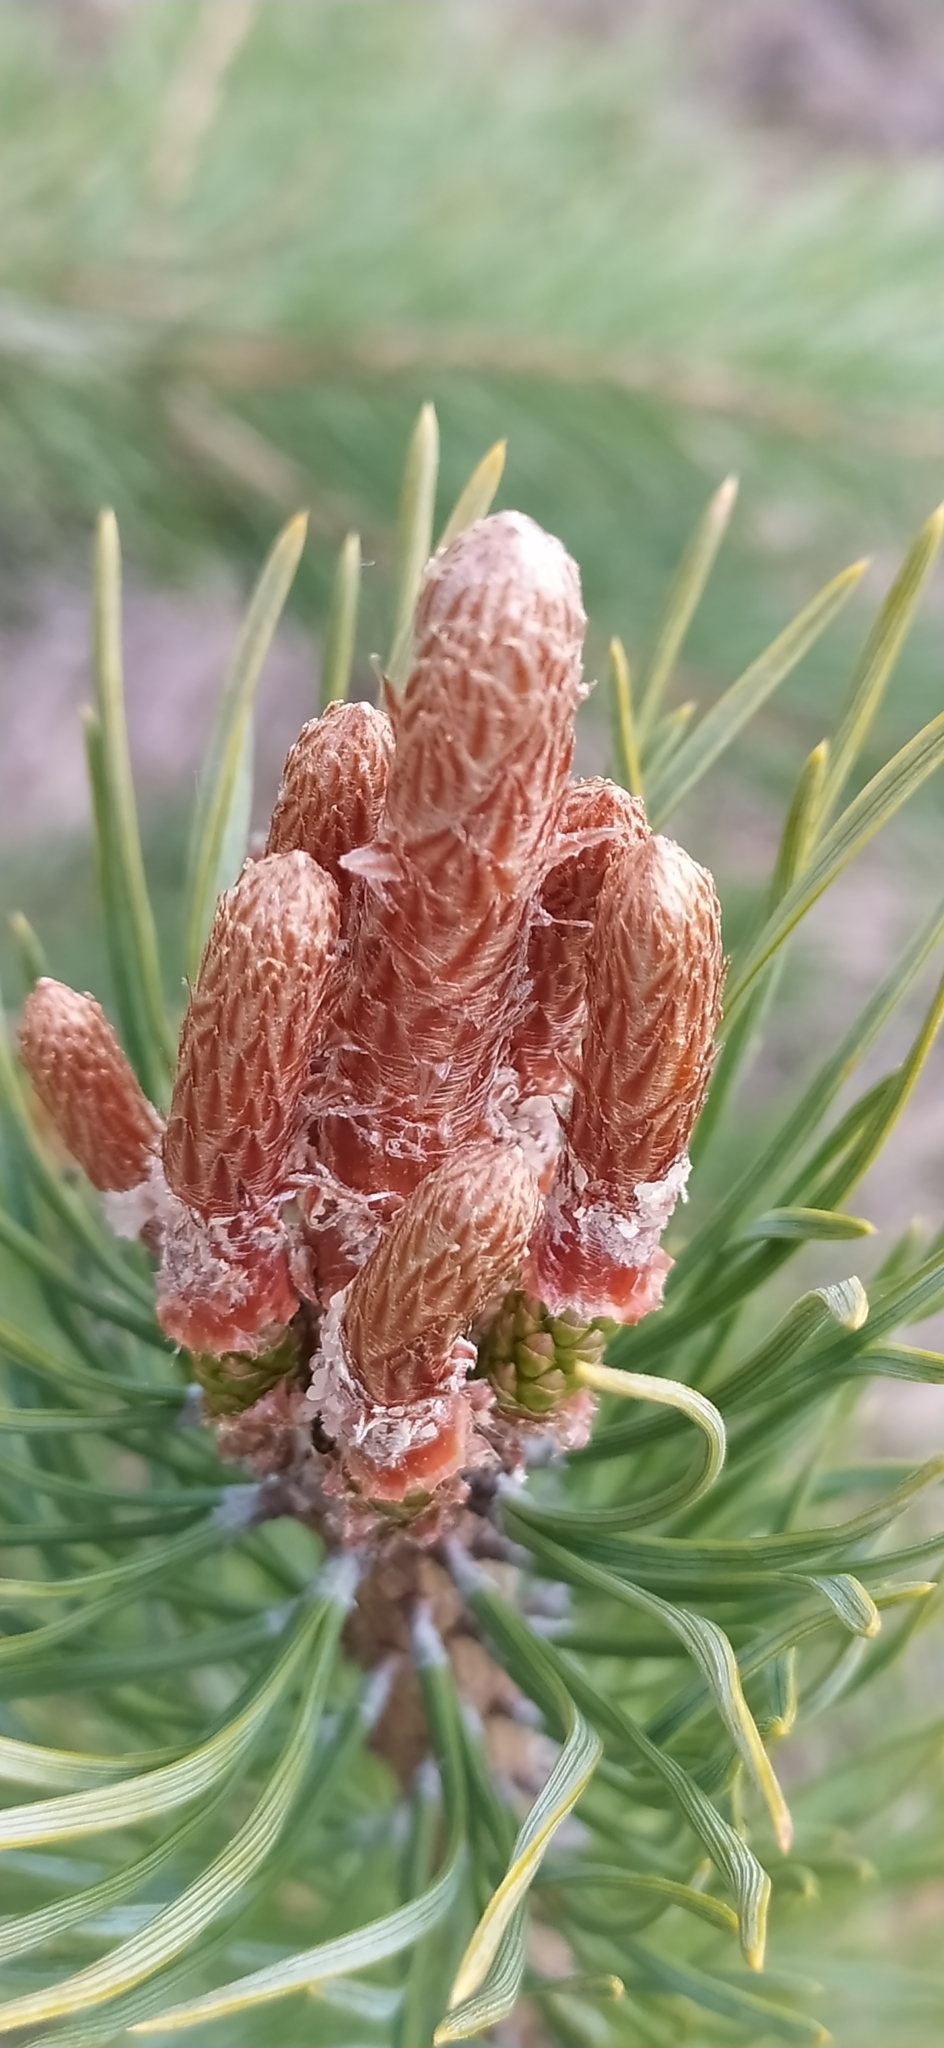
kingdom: Plantae
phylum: Tracheophyta
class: Pinopsida
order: Pinales
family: Pinaceae
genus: Pinus
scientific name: Pinus sylvestris
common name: Scots pine
